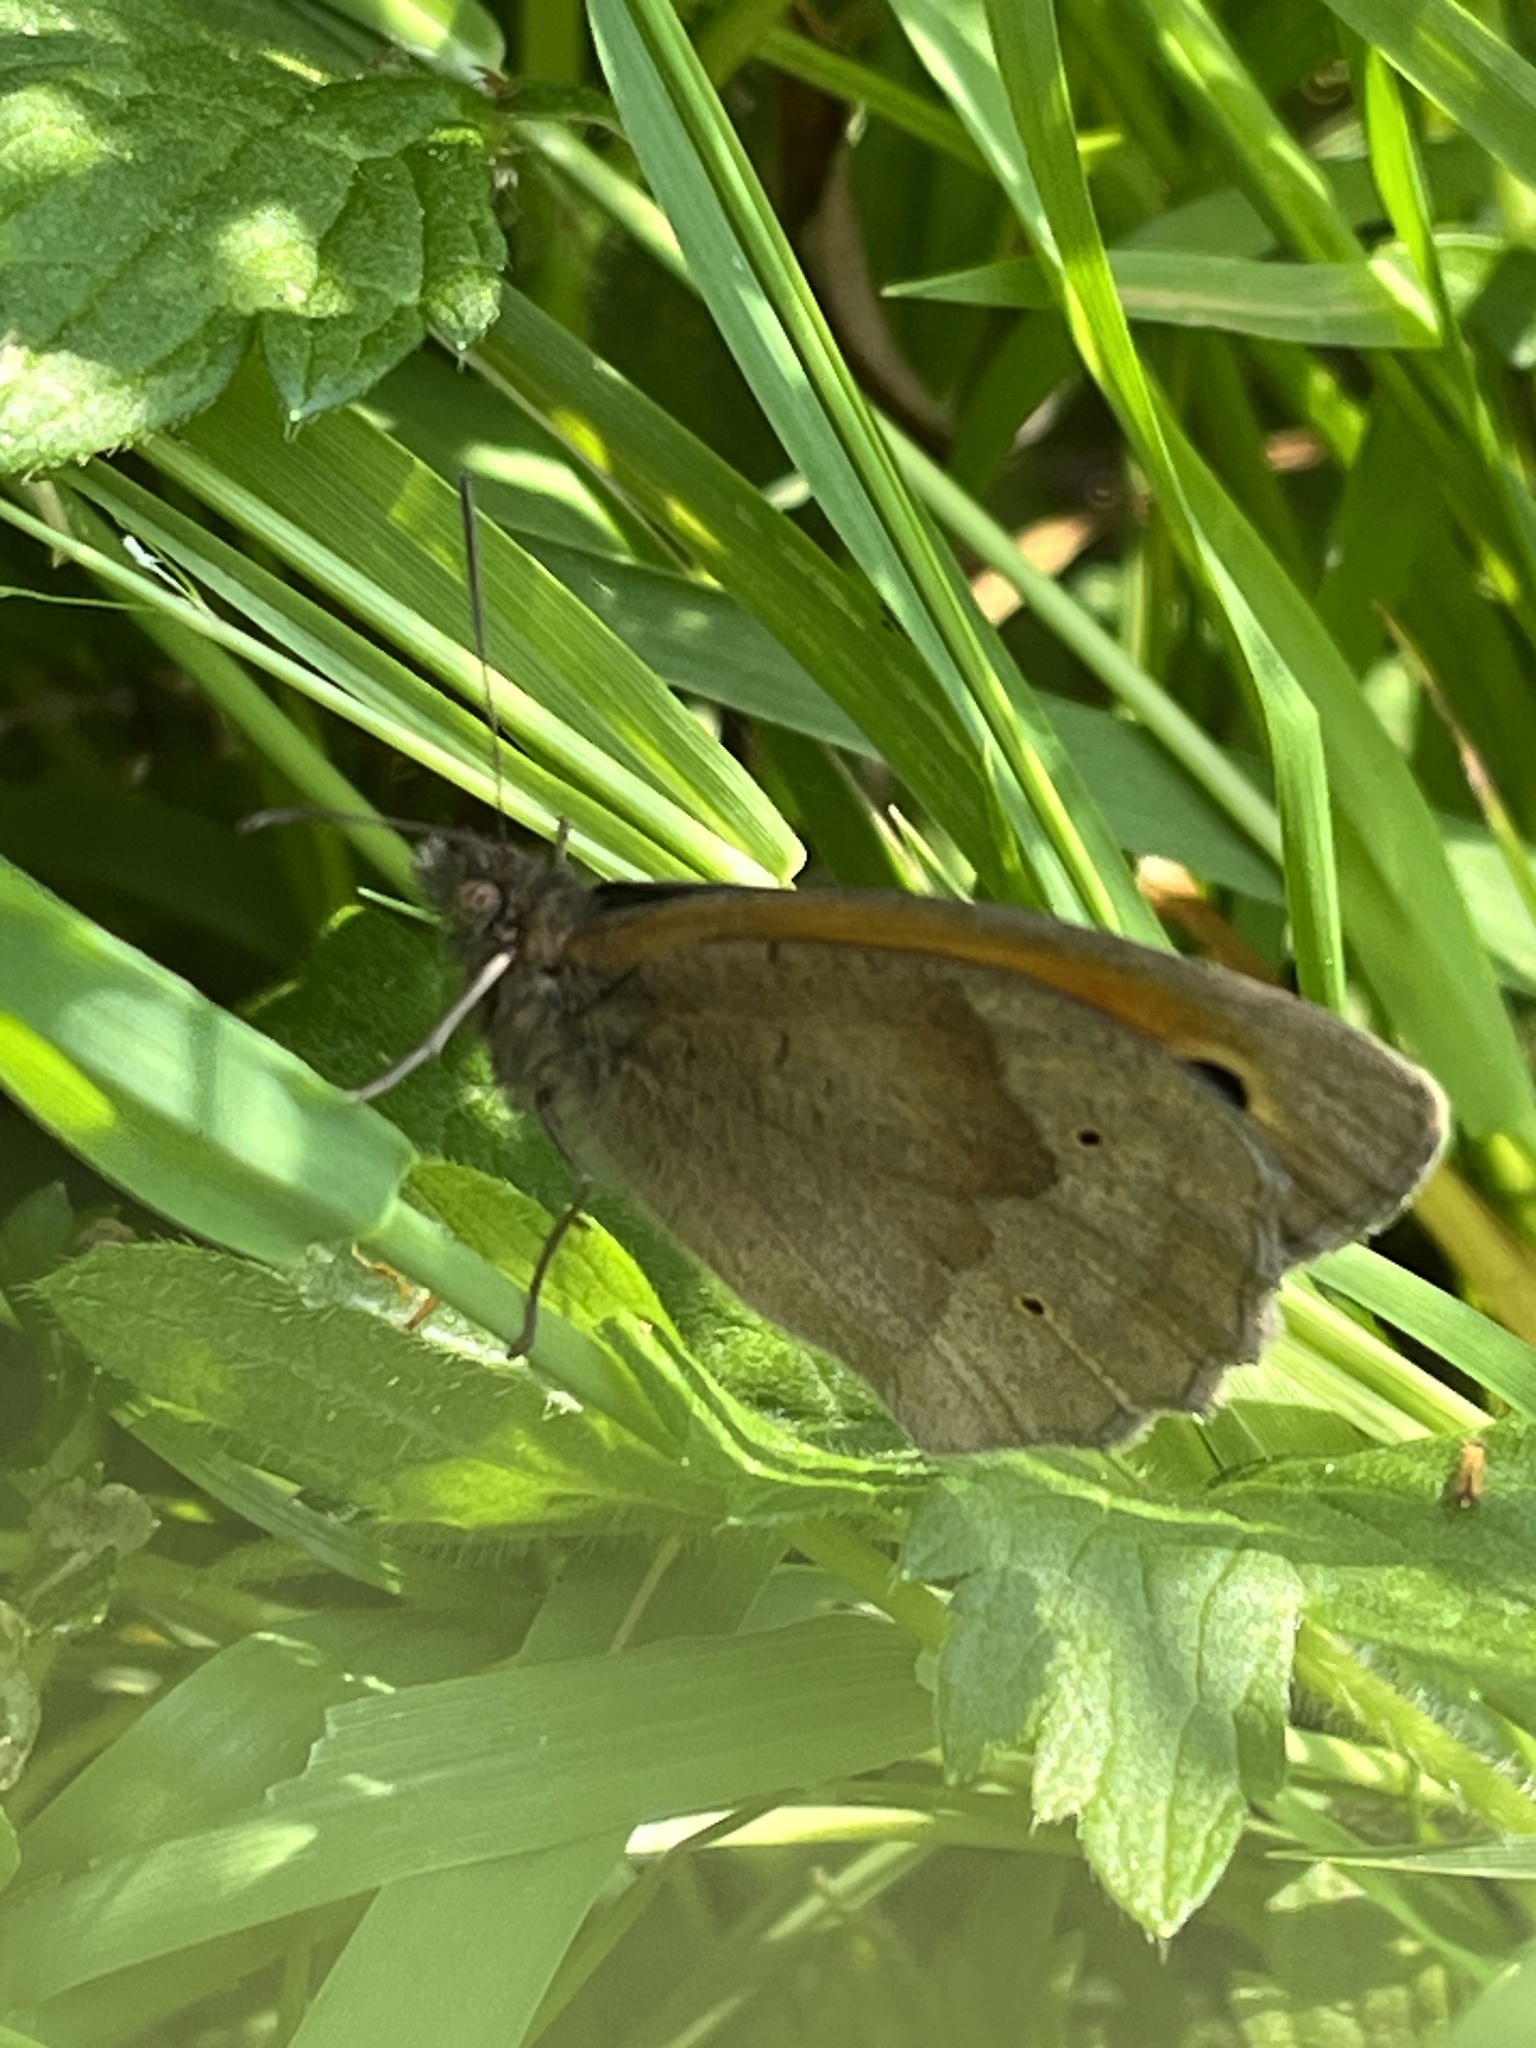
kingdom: Animalia
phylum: Arthropoda
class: Insecta
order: Lepidoptera
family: Nymphalidae
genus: Maniola
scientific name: Maniola jurtina
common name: Meadow brown
